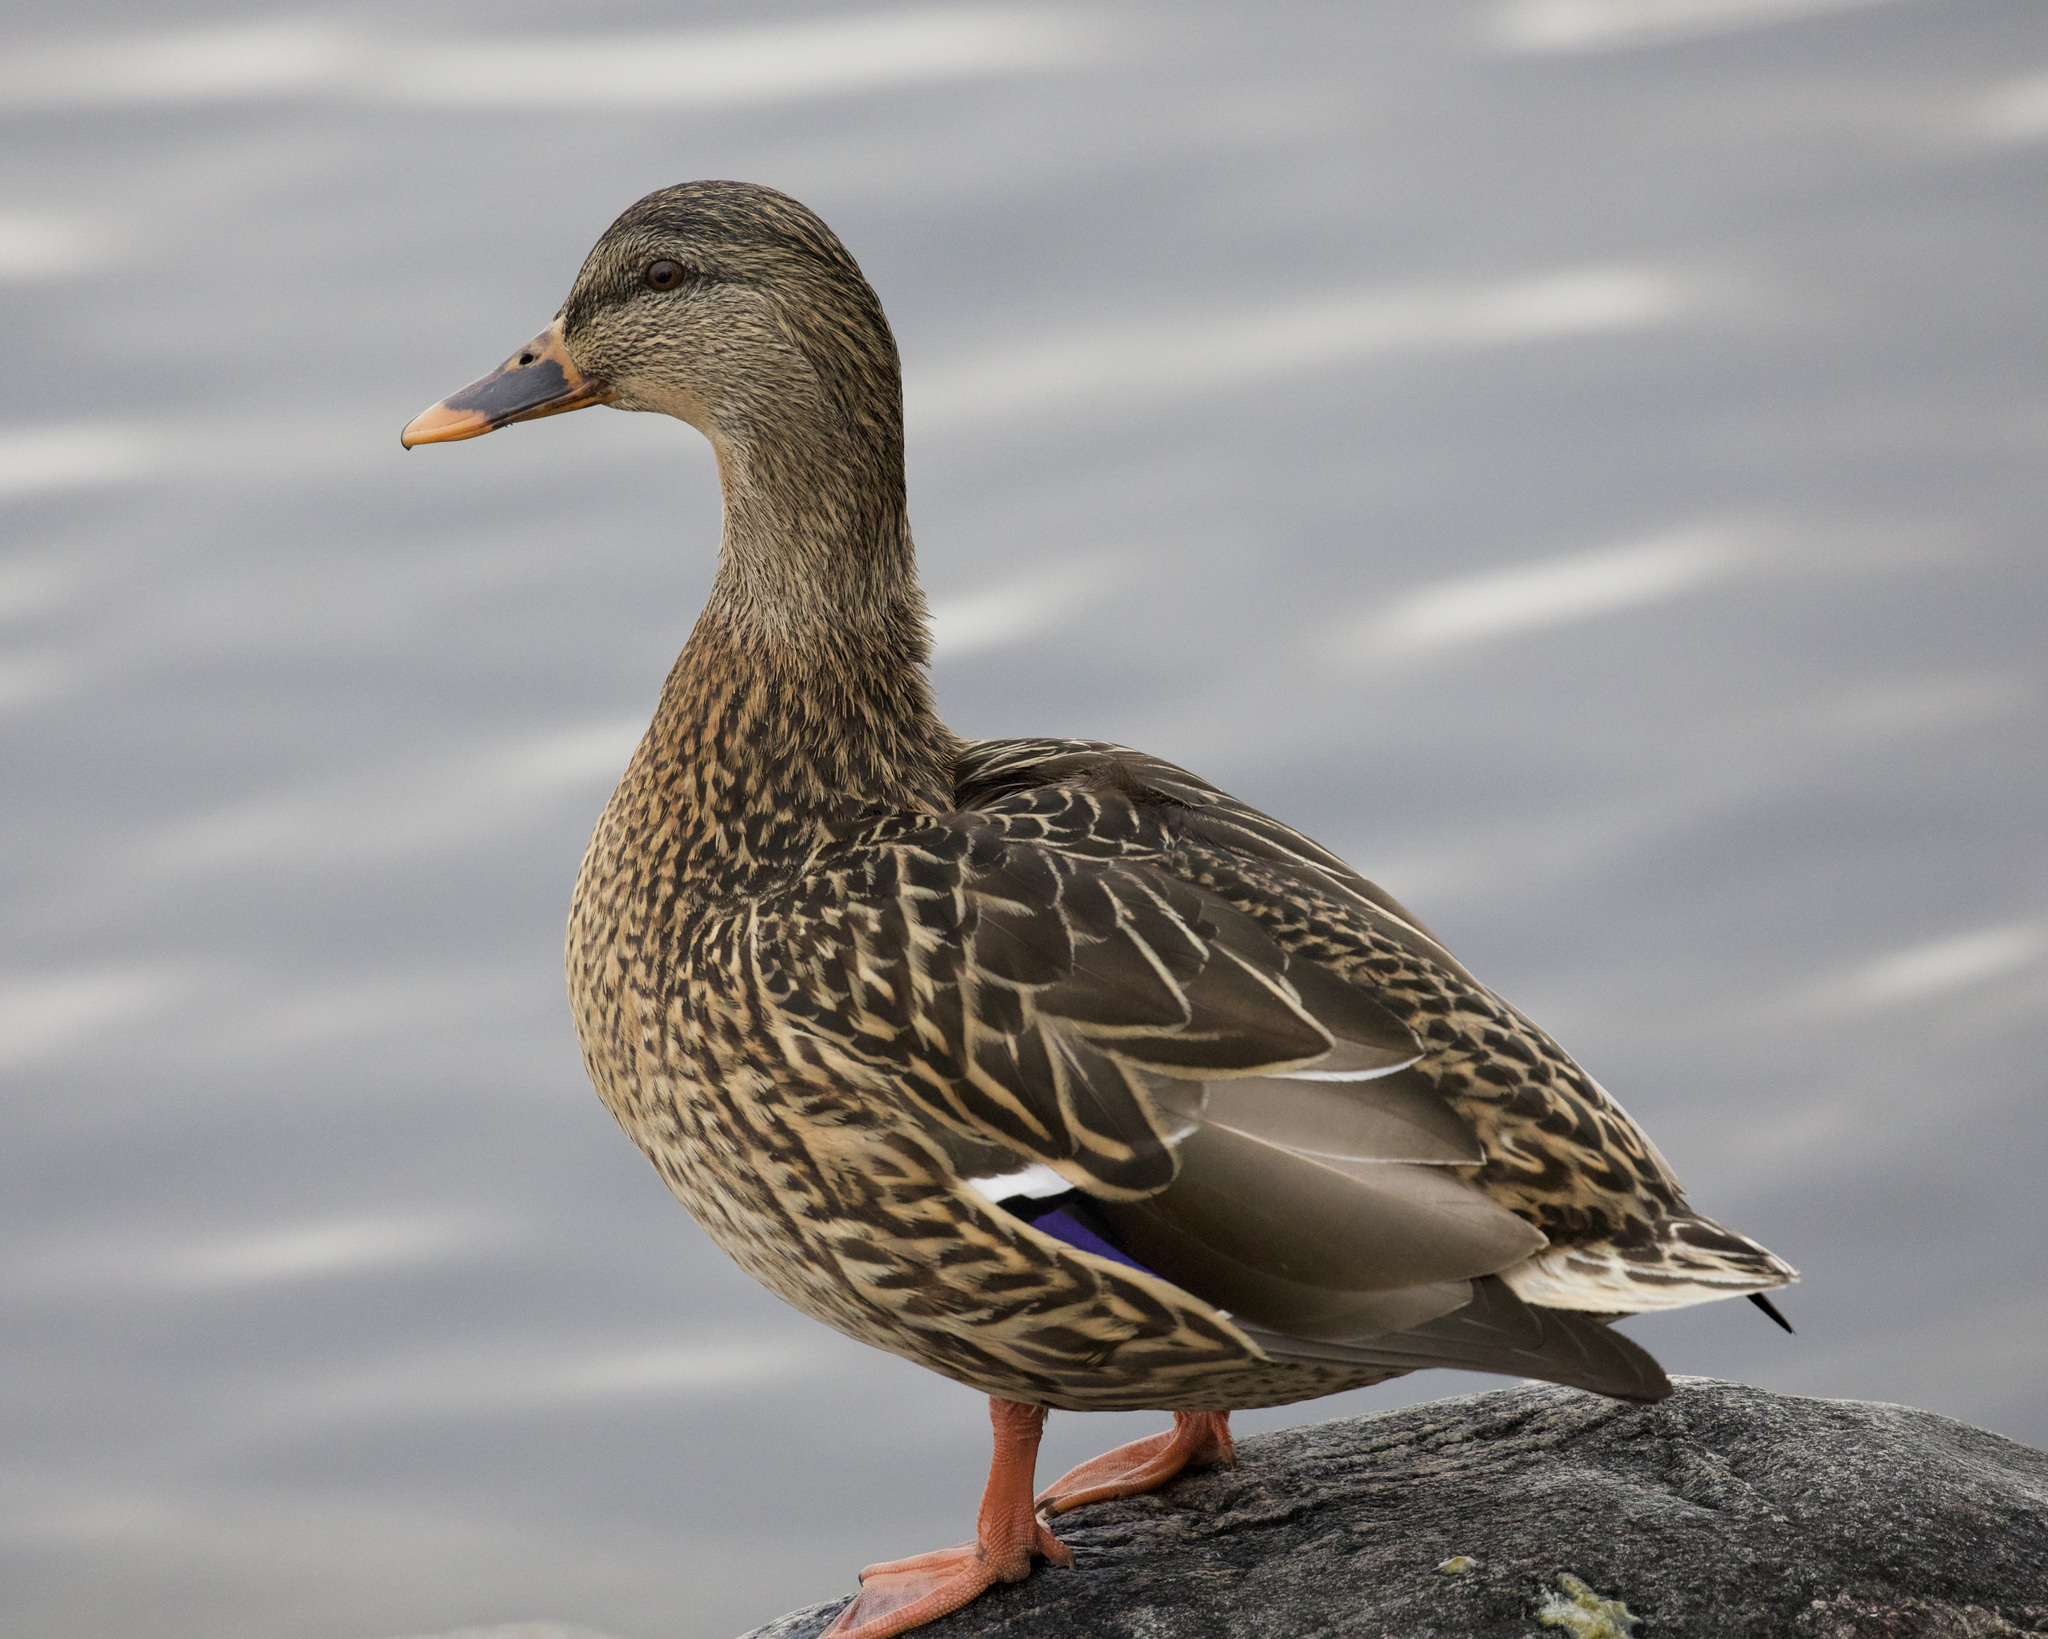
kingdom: Animalia
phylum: Chordata
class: Aves
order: Anseriformes
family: Anatidae
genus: Anas
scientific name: Anas platyrhynchos
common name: Mallard
